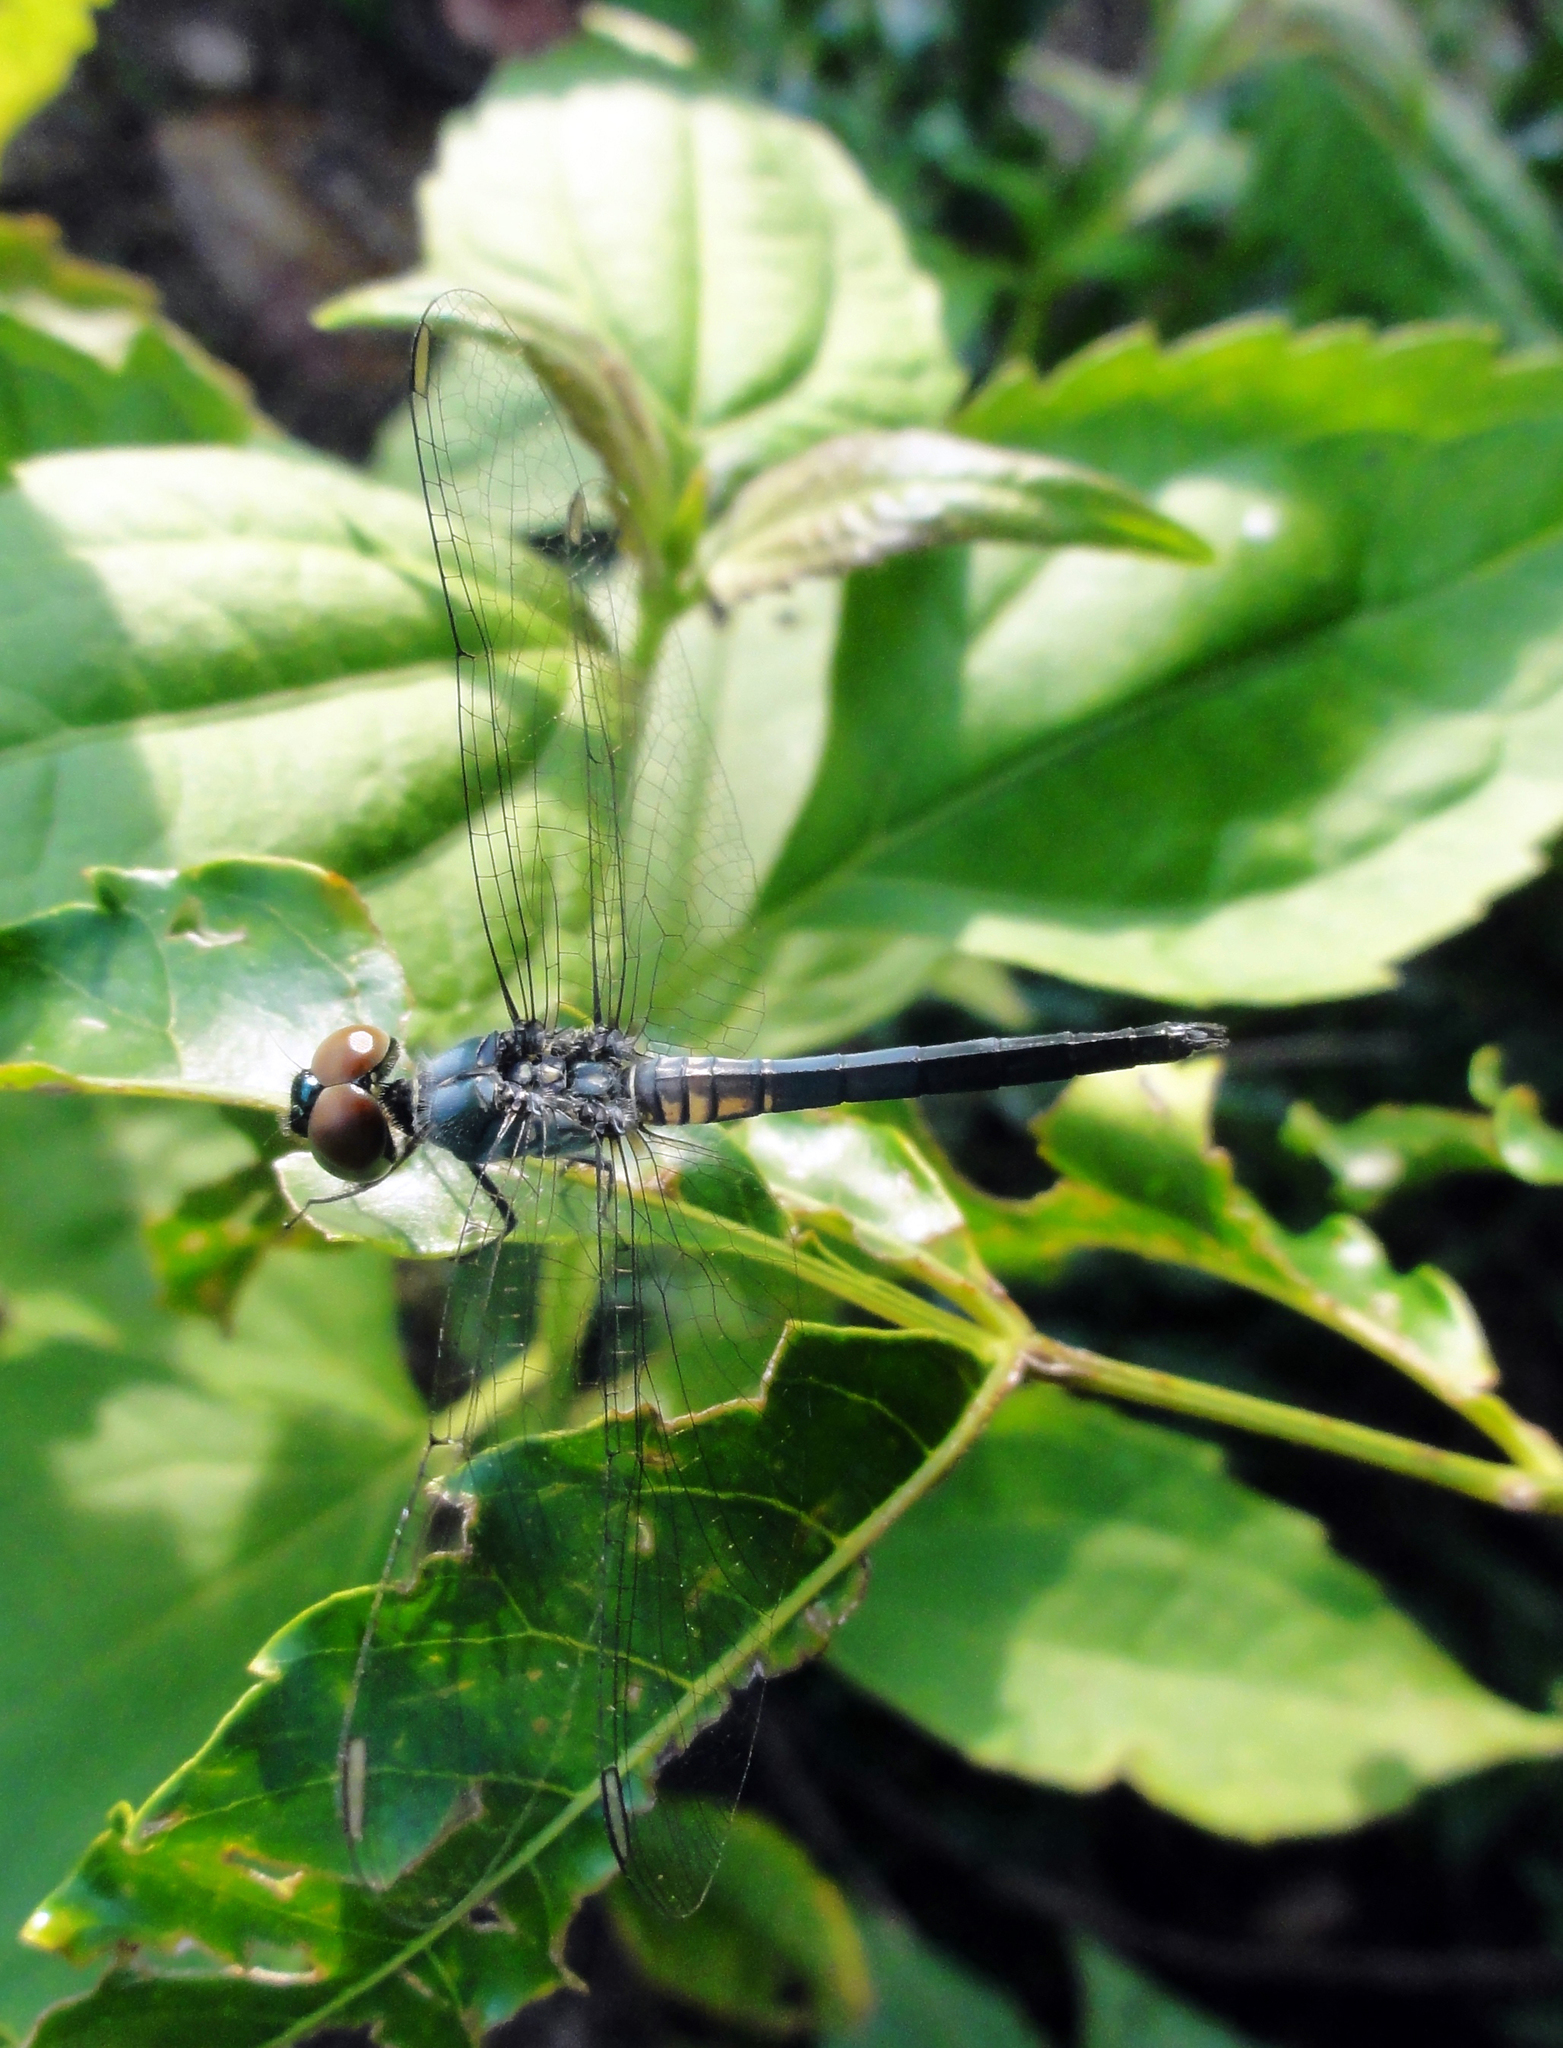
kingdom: Animalia
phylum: Arthropoda
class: Insecta
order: Odonata
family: Libellulidae
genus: Brachydiplax
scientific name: Brachydiplax sobrina
